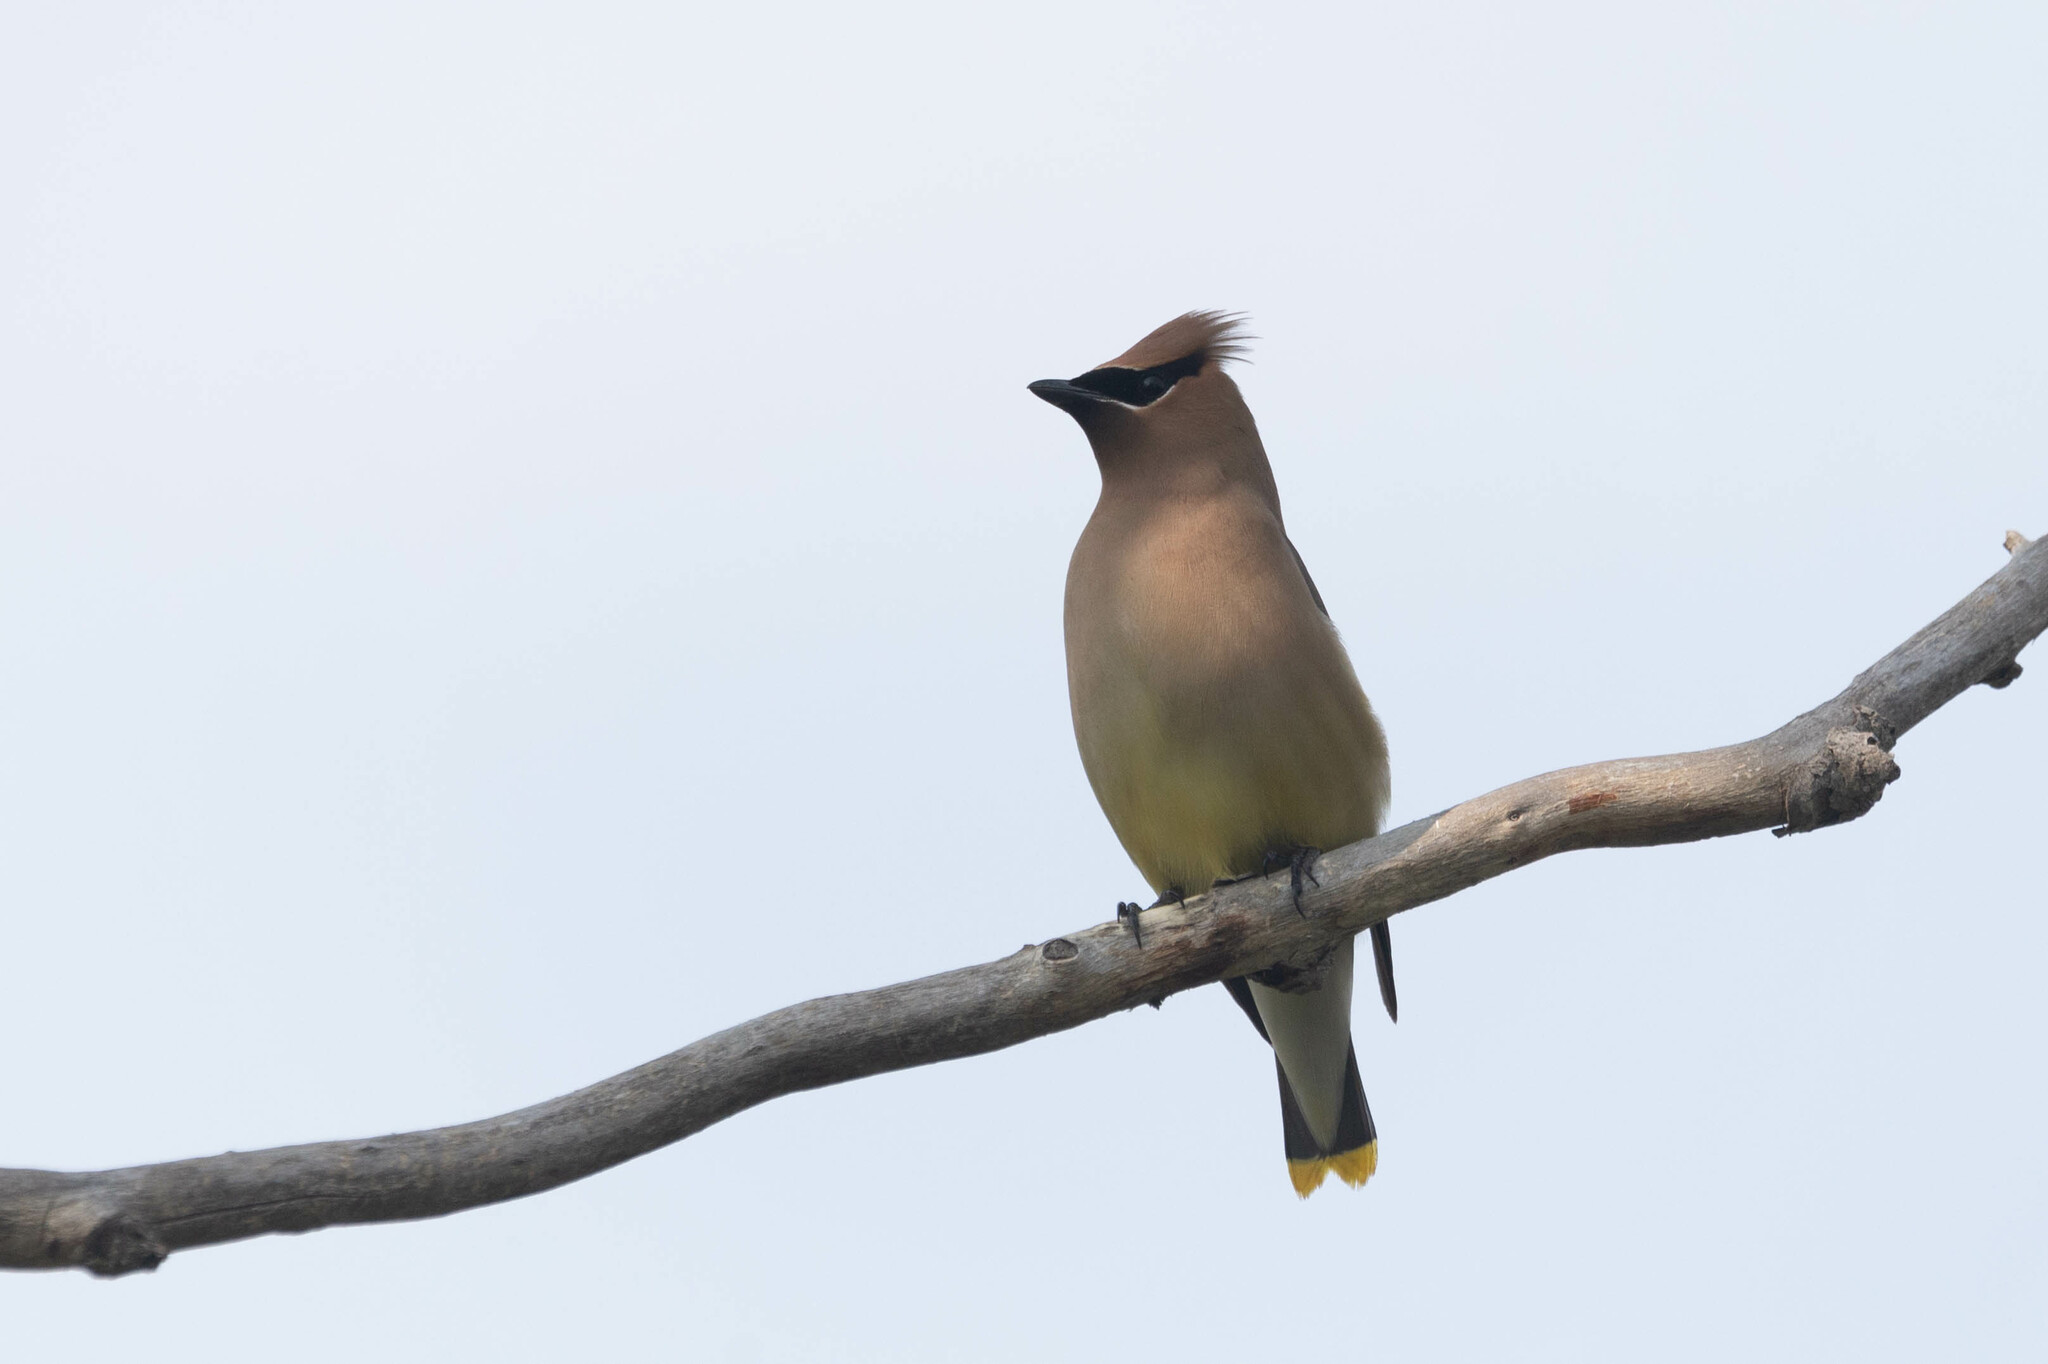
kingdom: Animalia
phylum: Chordata
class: Aves
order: Passeriformes
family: Bombycillidae
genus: Bombycilla
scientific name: Bombycilla cedrorum
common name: Cedar waxwing
